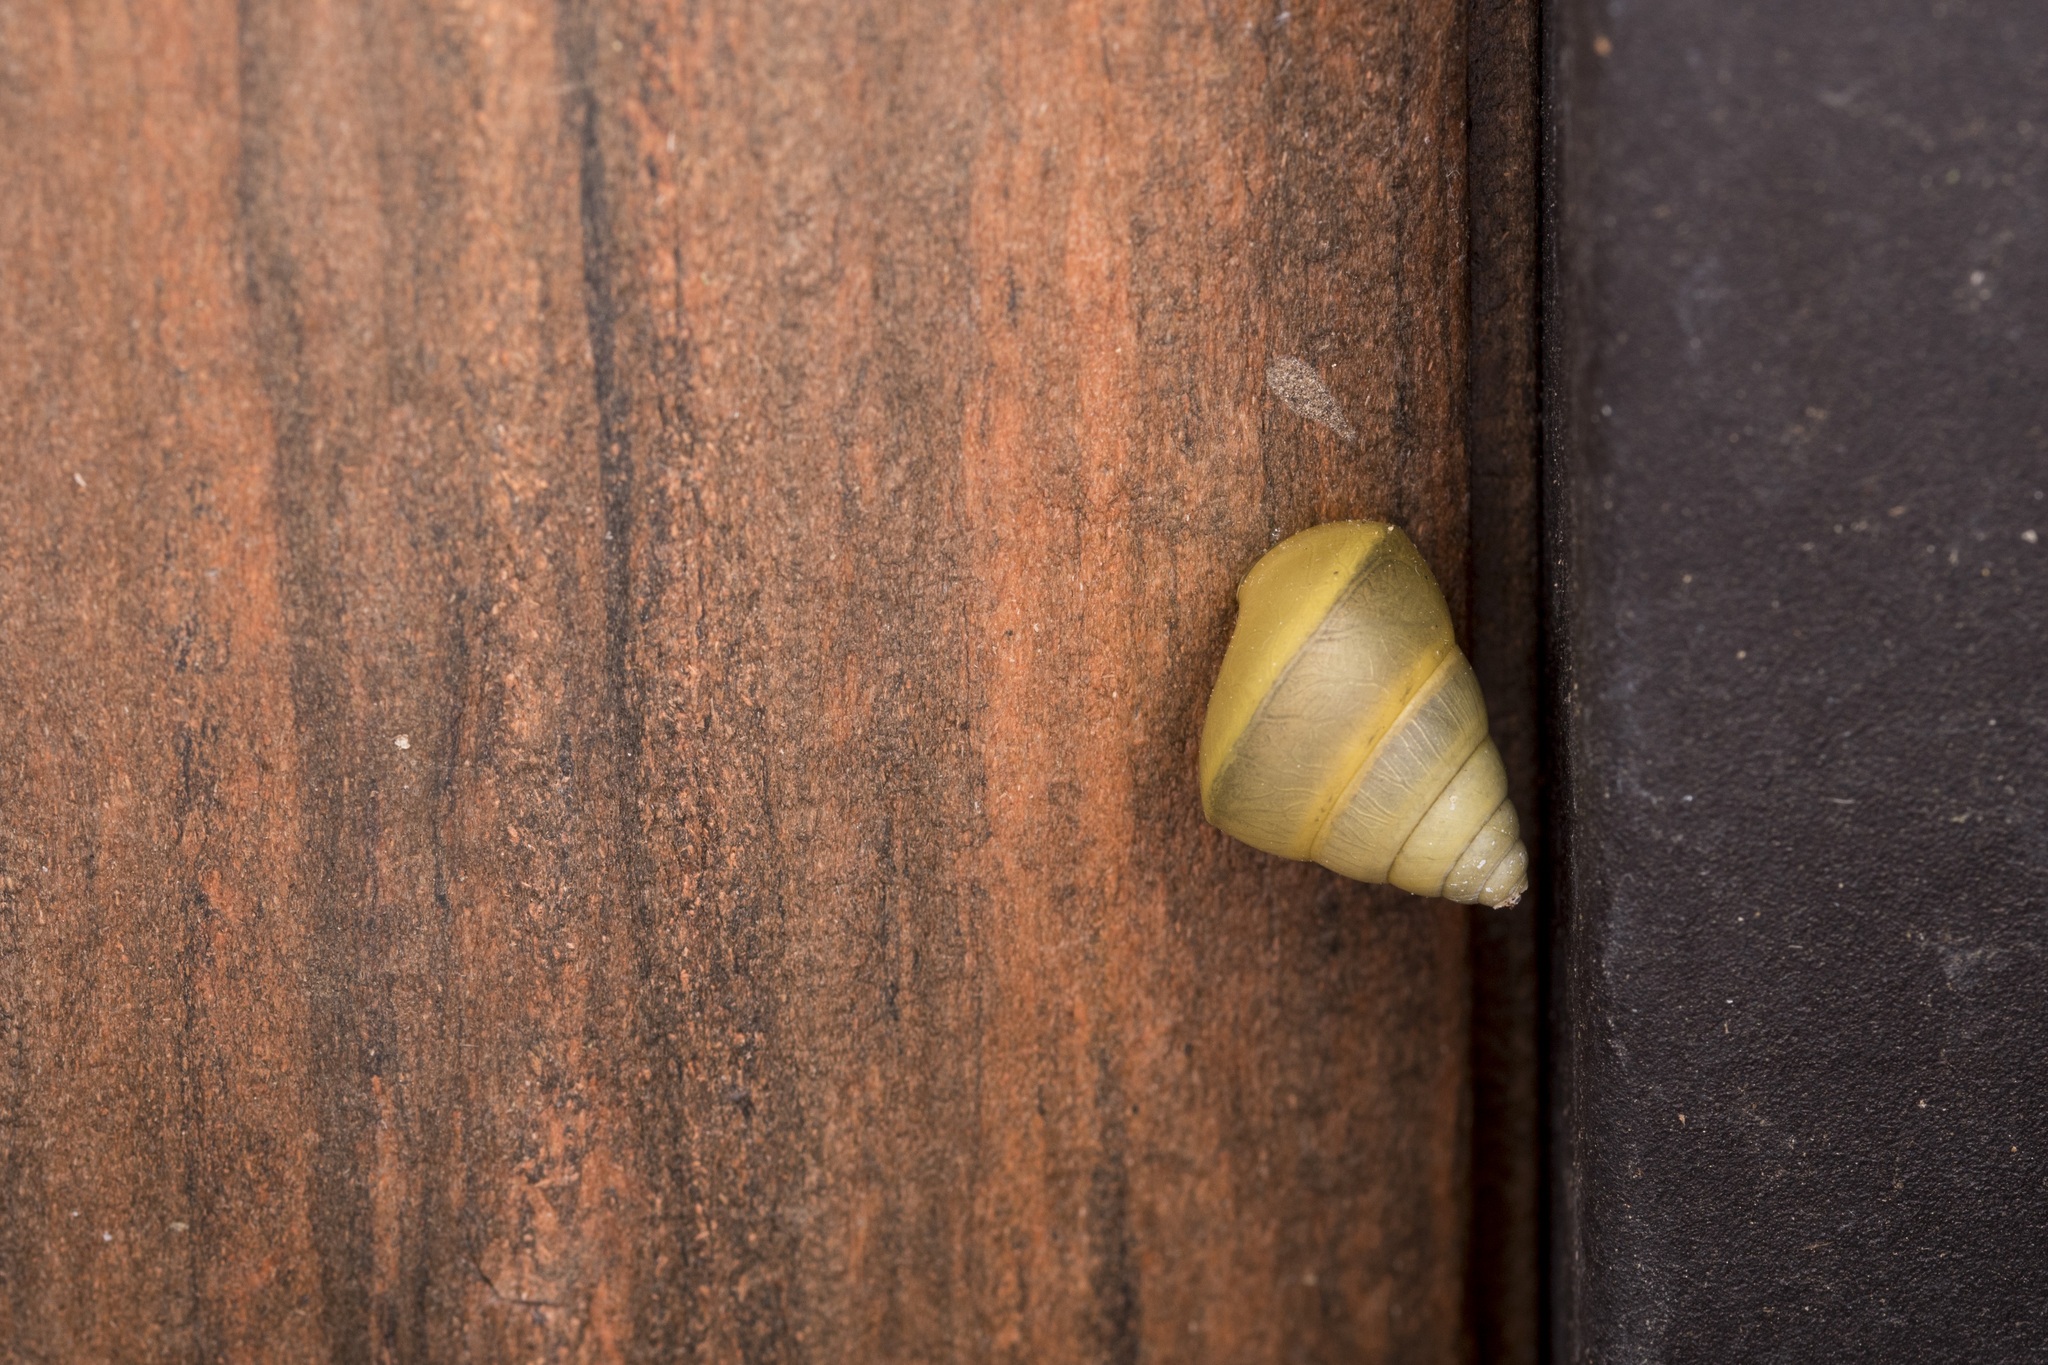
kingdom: Animalia
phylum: Mollusca
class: Gastropoda
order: Stylommatophora
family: Camaenidae
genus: Satsuma
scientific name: Satsuma mollicula
